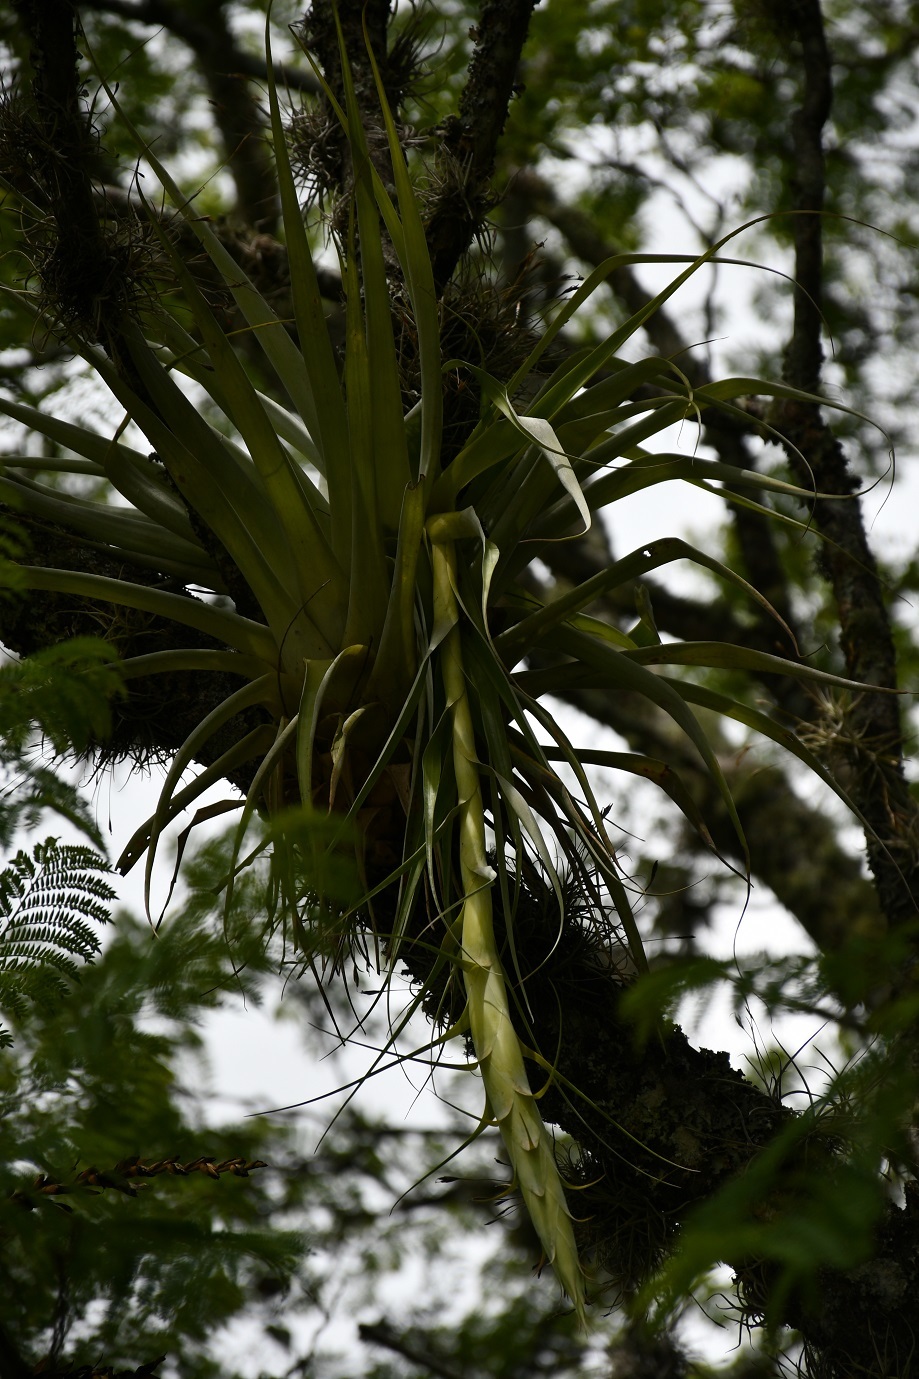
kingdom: Plantae
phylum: Tracheophyta
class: Liliopsida
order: Poales
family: Bromeliaceae
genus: Tillandsia
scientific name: Tillandsia prodigiosa
